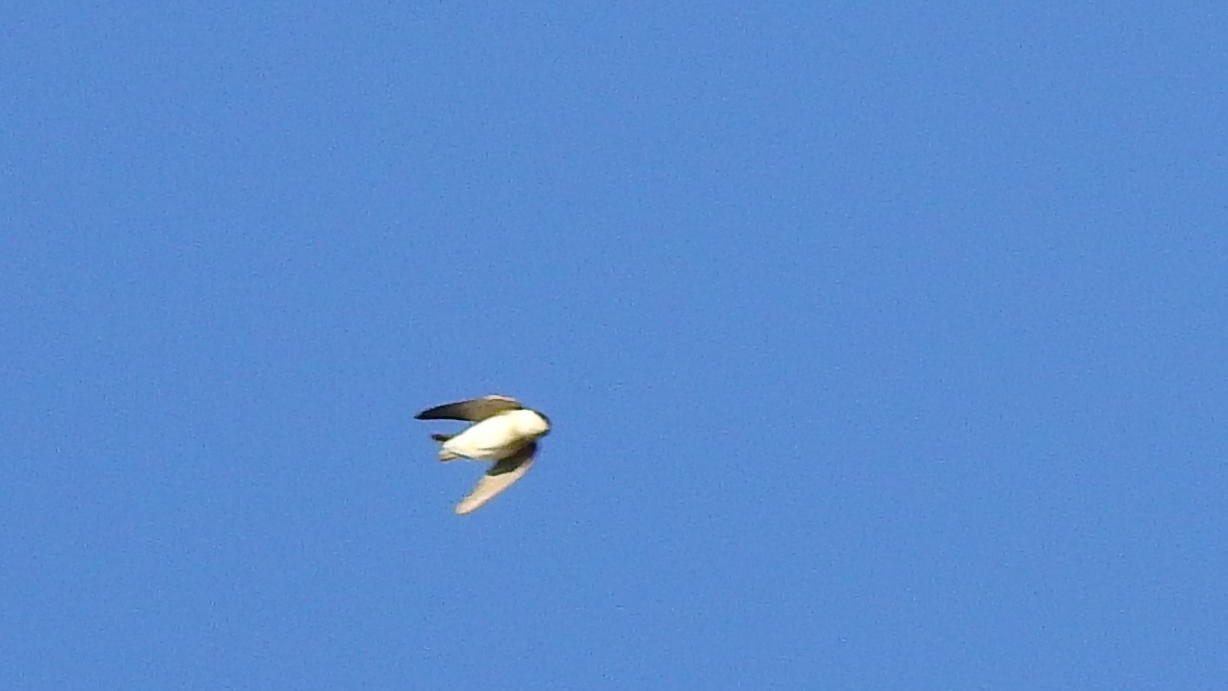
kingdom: Animalia
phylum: Chordata
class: Aves
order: Passeriformes
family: Hirundinidae
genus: Tachycineta
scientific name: Tachycineta leucopyga
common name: Chilean swallow
